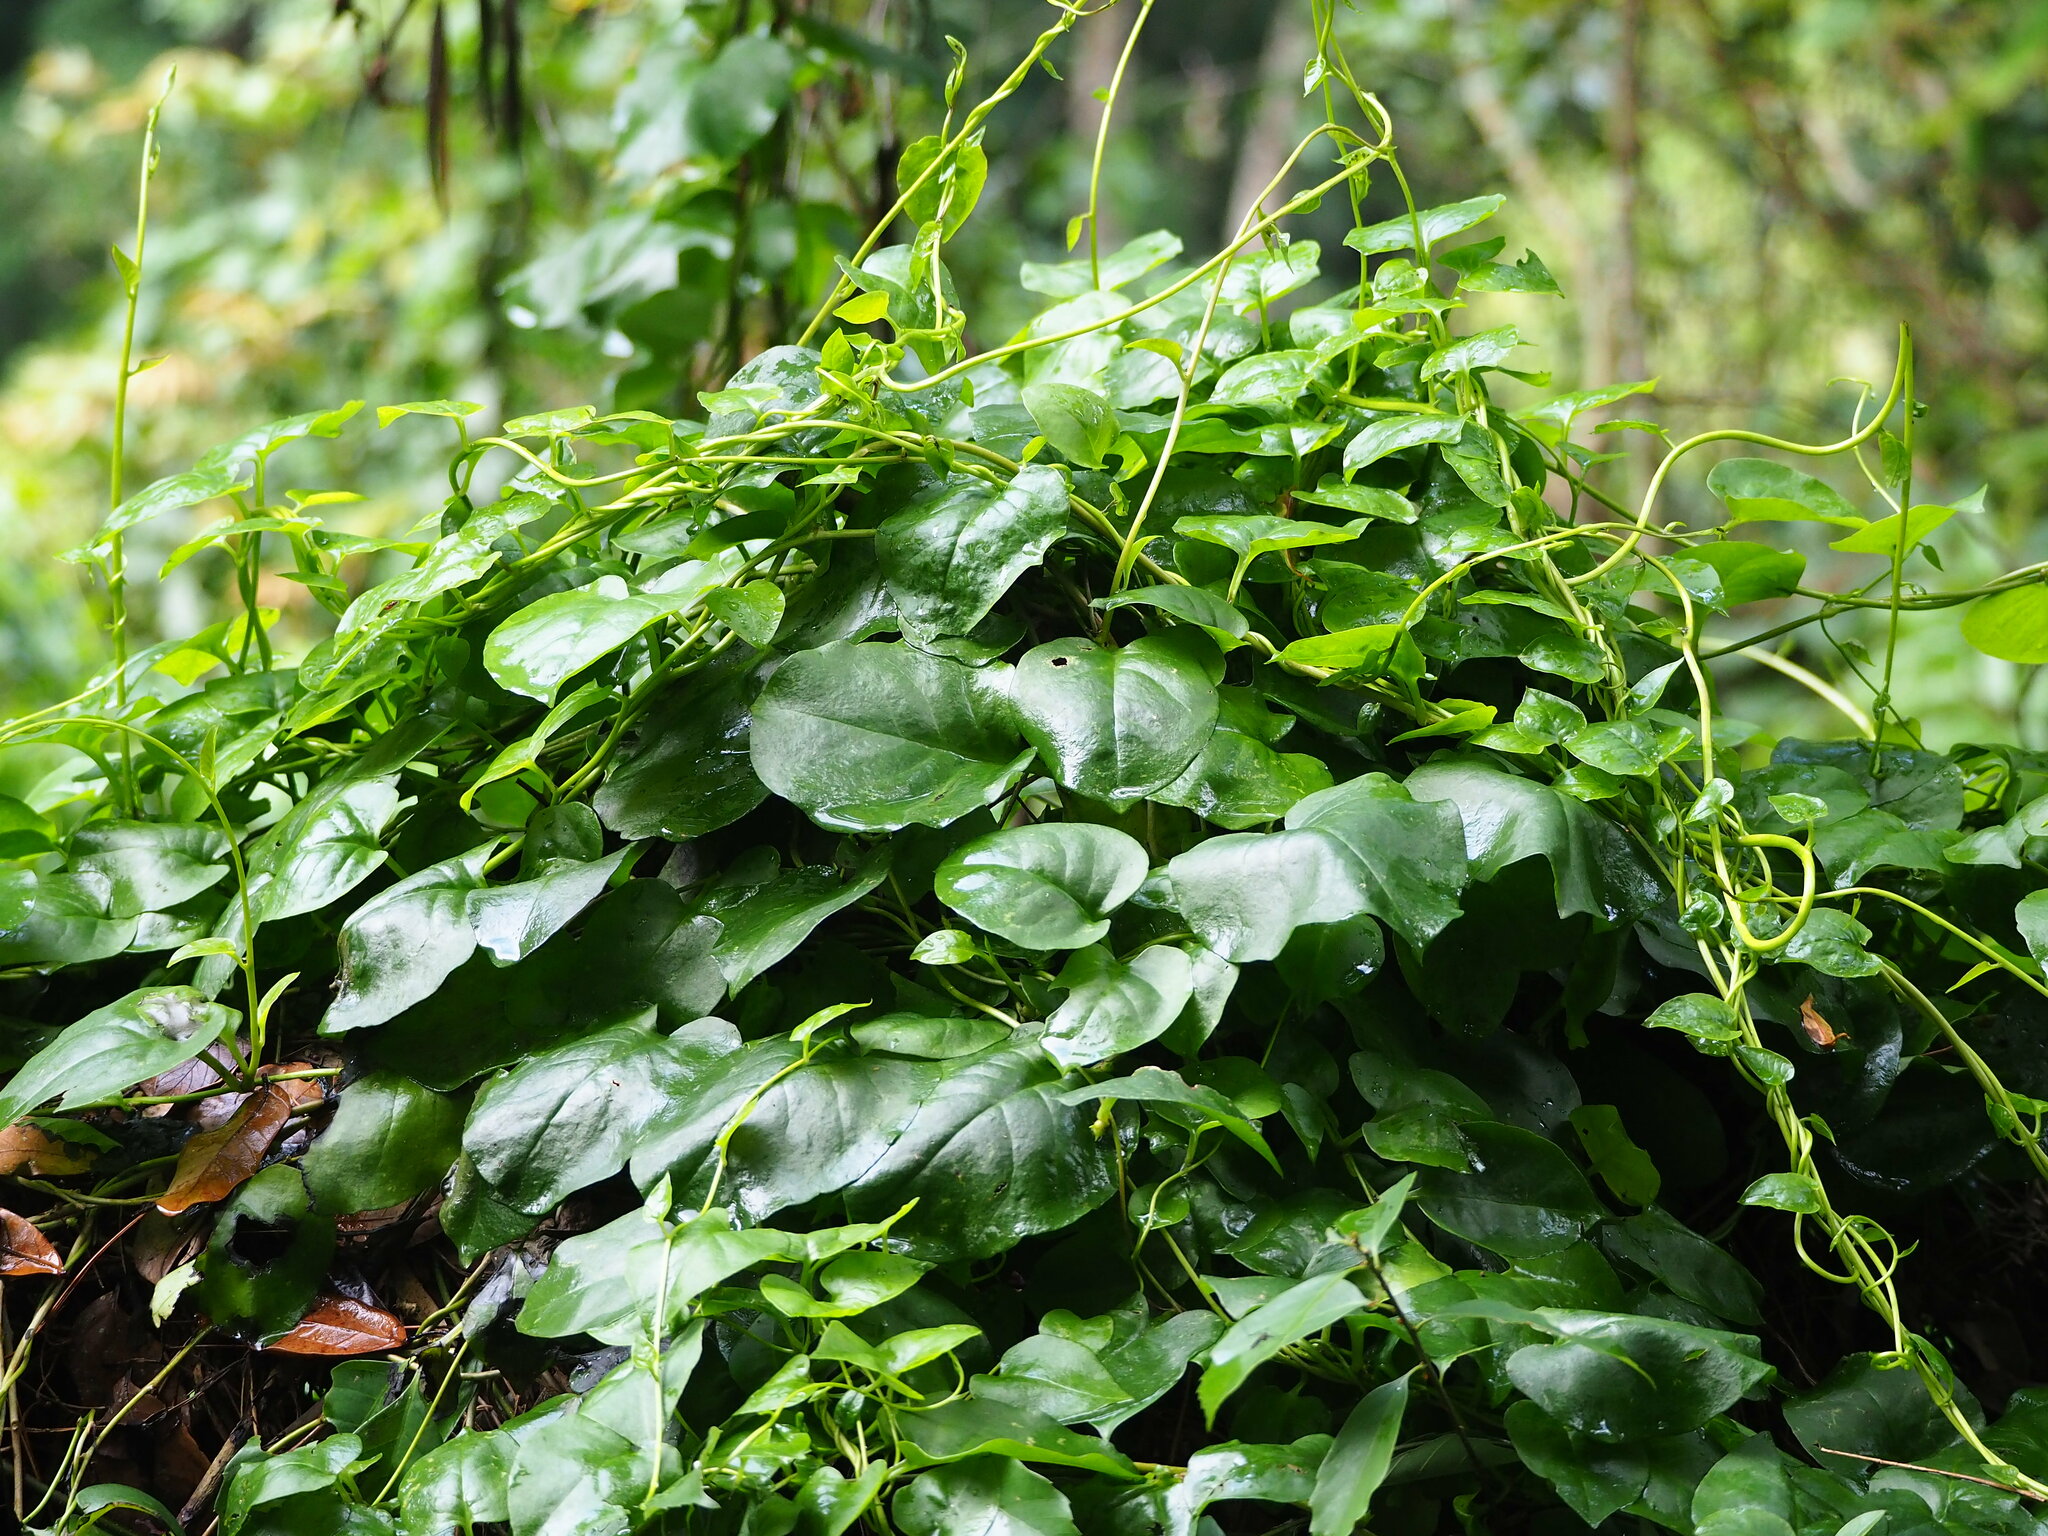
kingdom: Plantae
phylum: Tracheophyta
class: Magnoliopsida
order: Caryophyllales
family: Basellaceae
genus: Anredera
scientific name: Anredera cordifolia
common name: Heartleaf madeiravine
